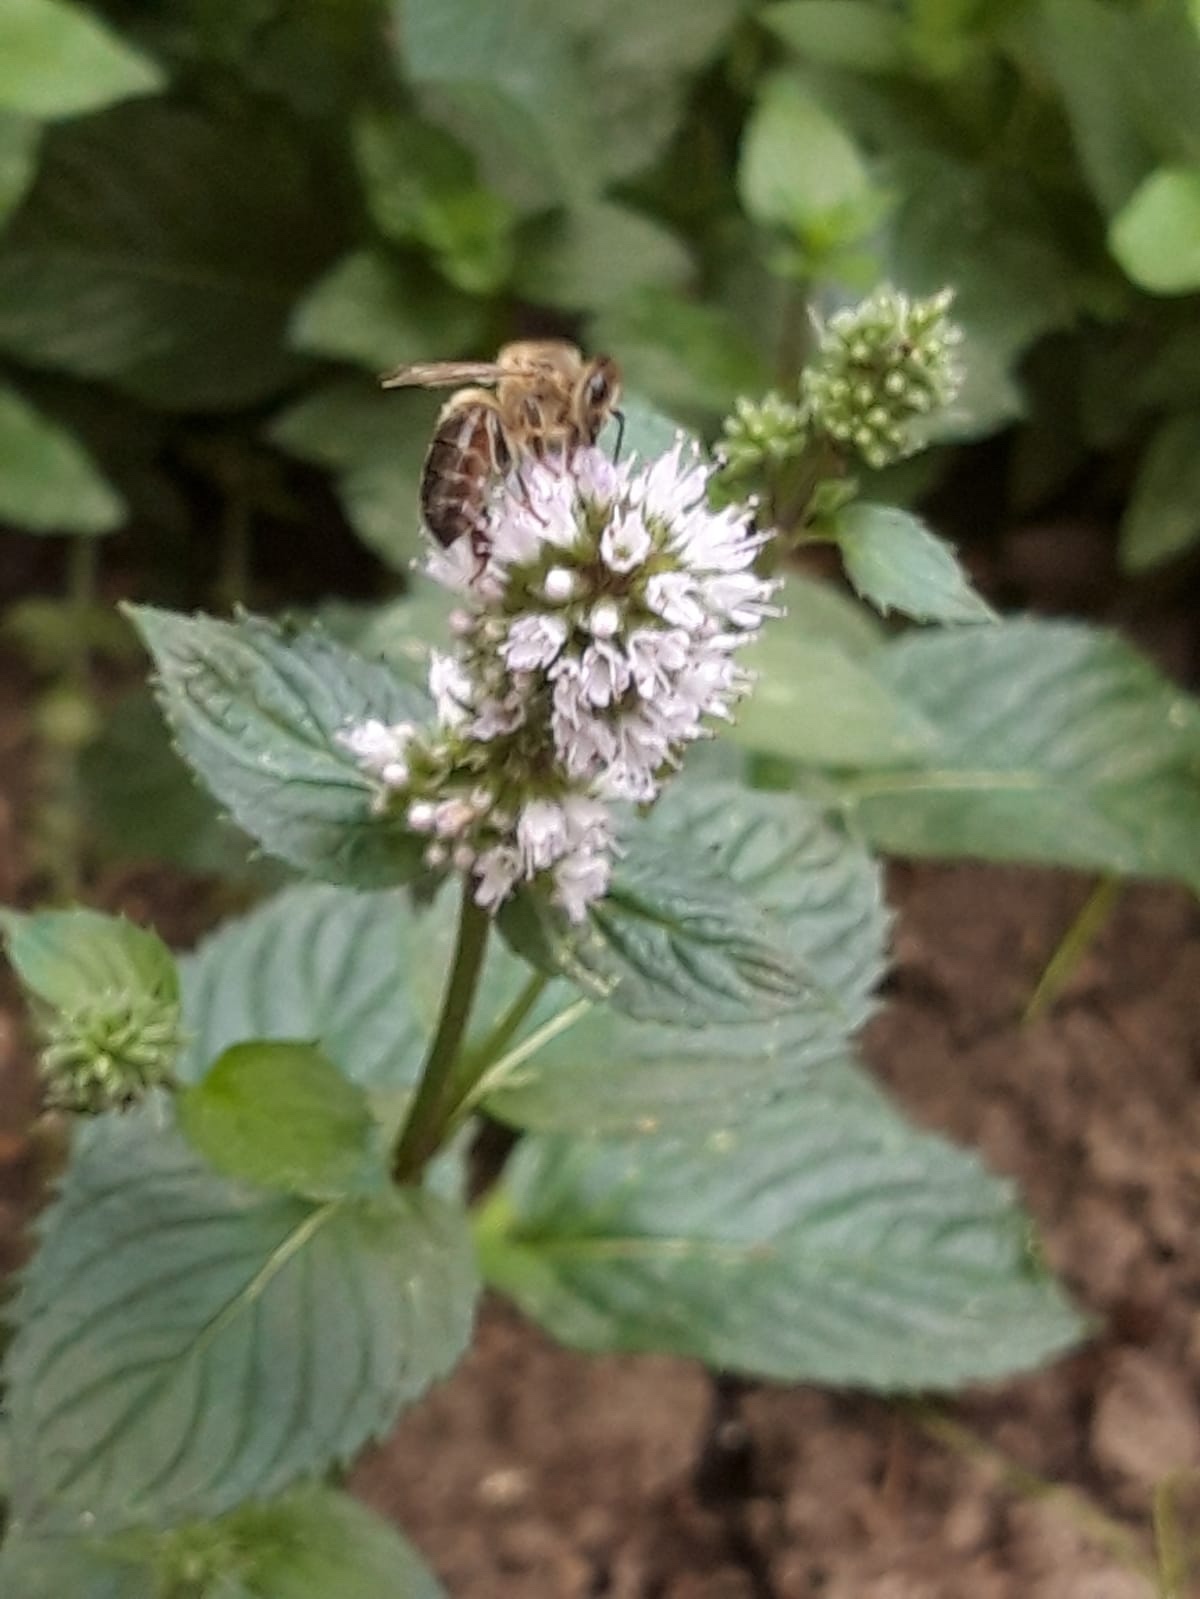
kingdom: Plantae
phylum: Tracheophyta
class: Magnoliopsida
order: Lamiales
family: Lamiaceae
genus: Mentha
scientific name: Mentha aquatica
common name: Water mint
